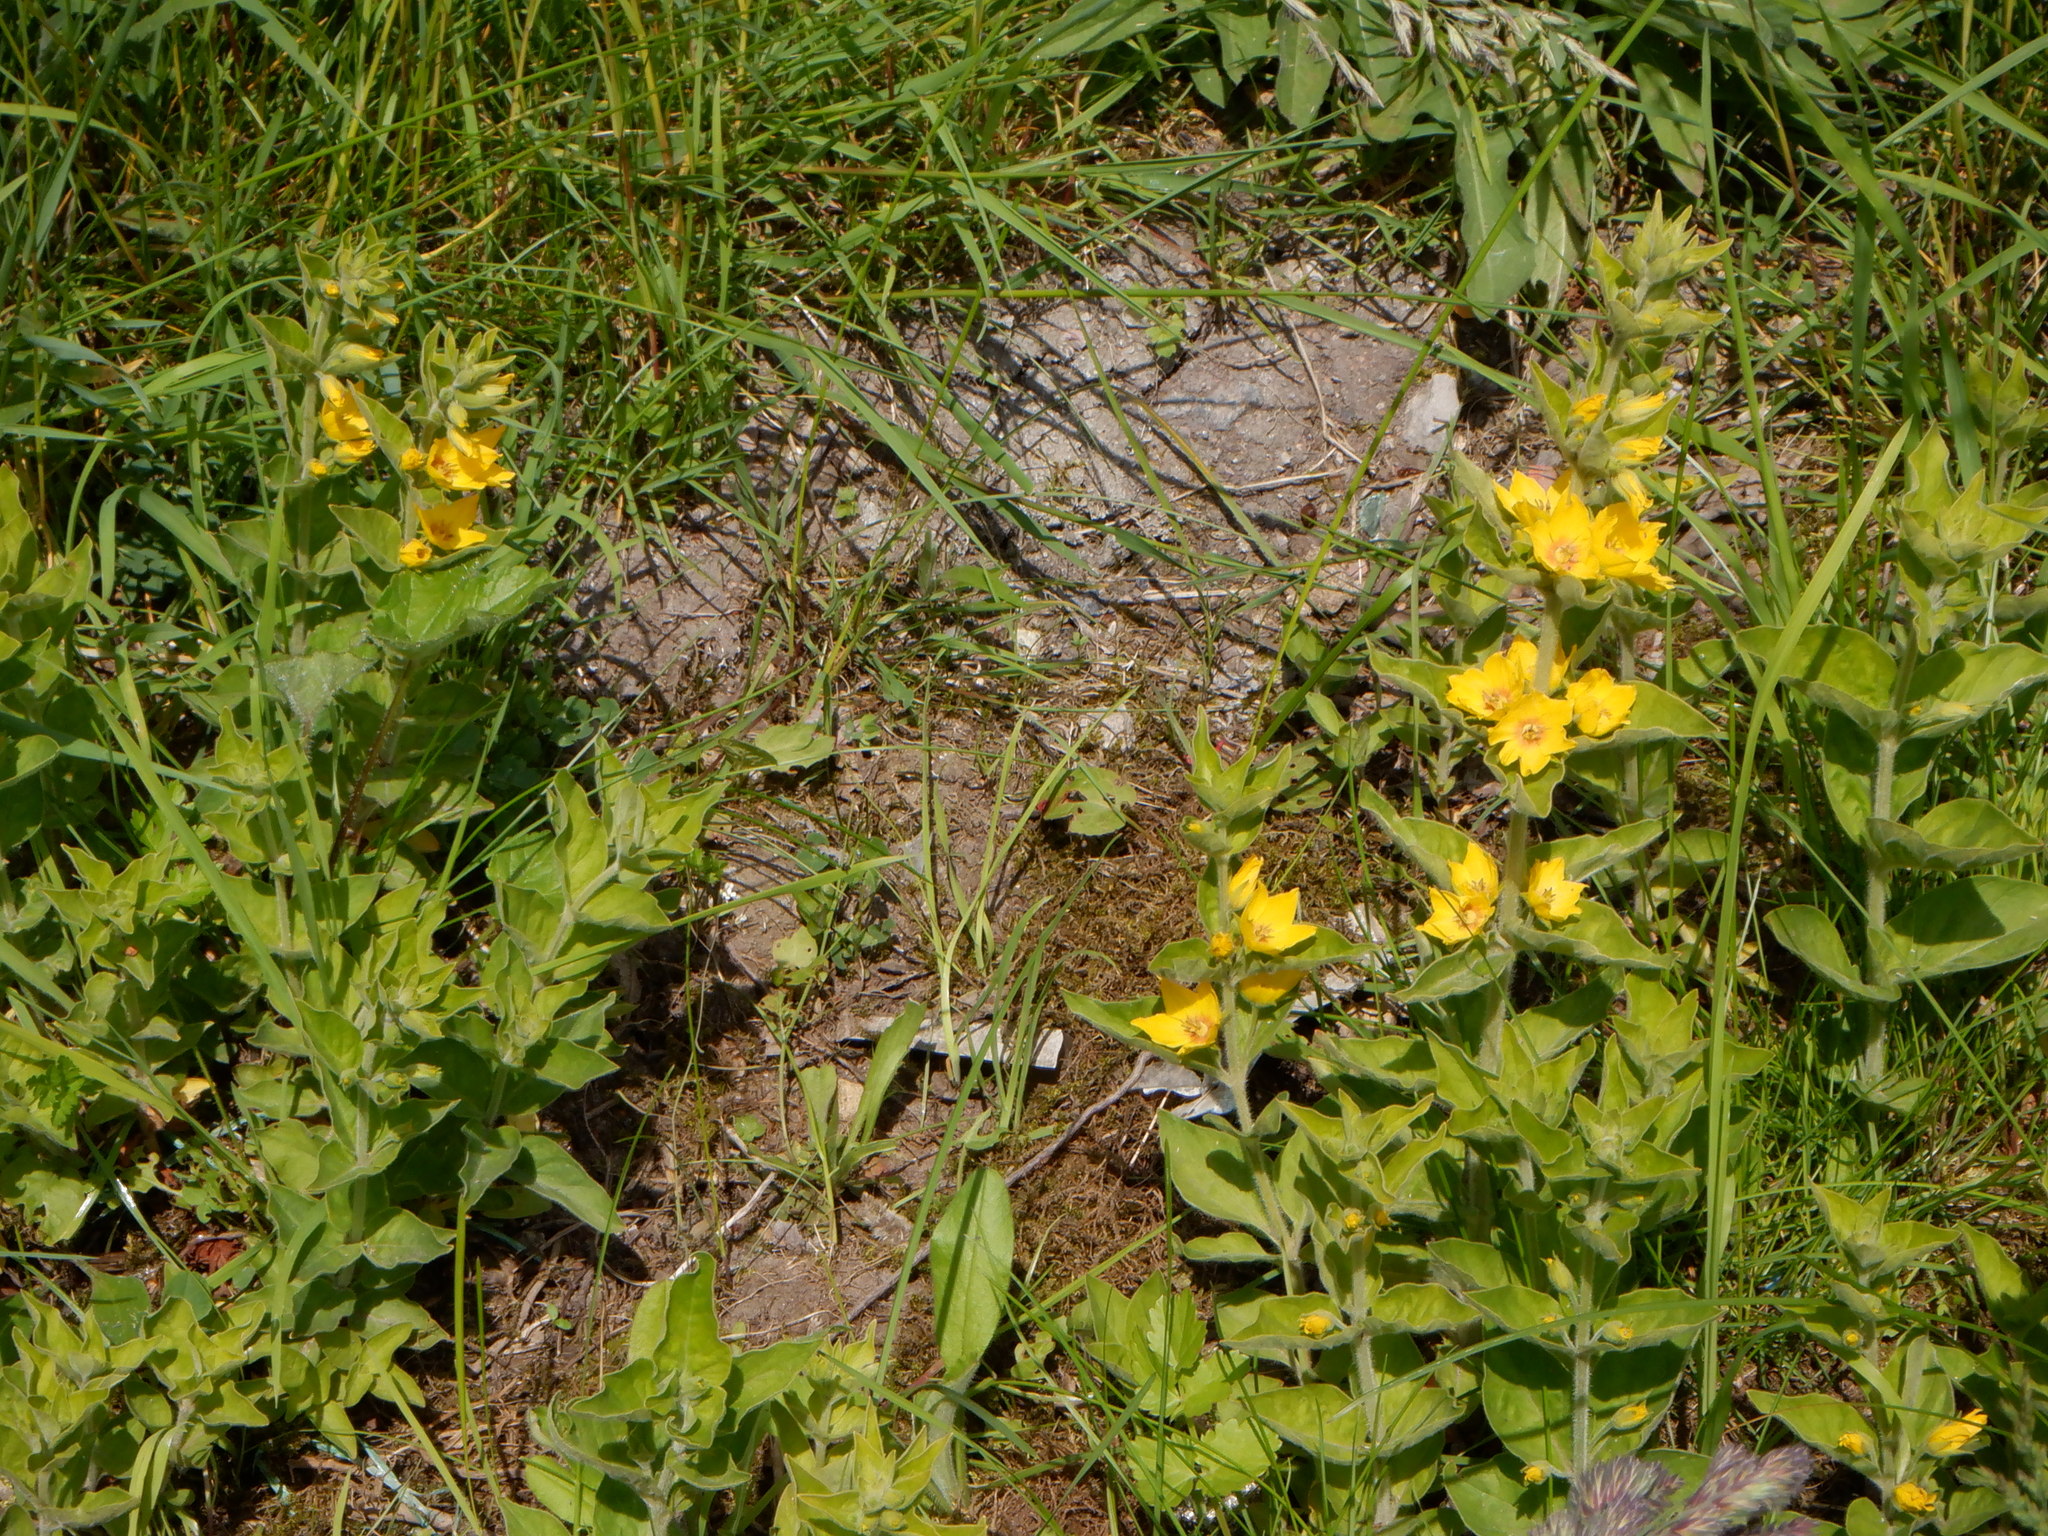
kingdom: Plantae
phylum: Tracheophyta
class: Magnoliopsida
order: Ericales
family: Primulaceae
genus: Lysimachia
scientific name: Lysimachia punctata
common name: Dotted loosestrife
